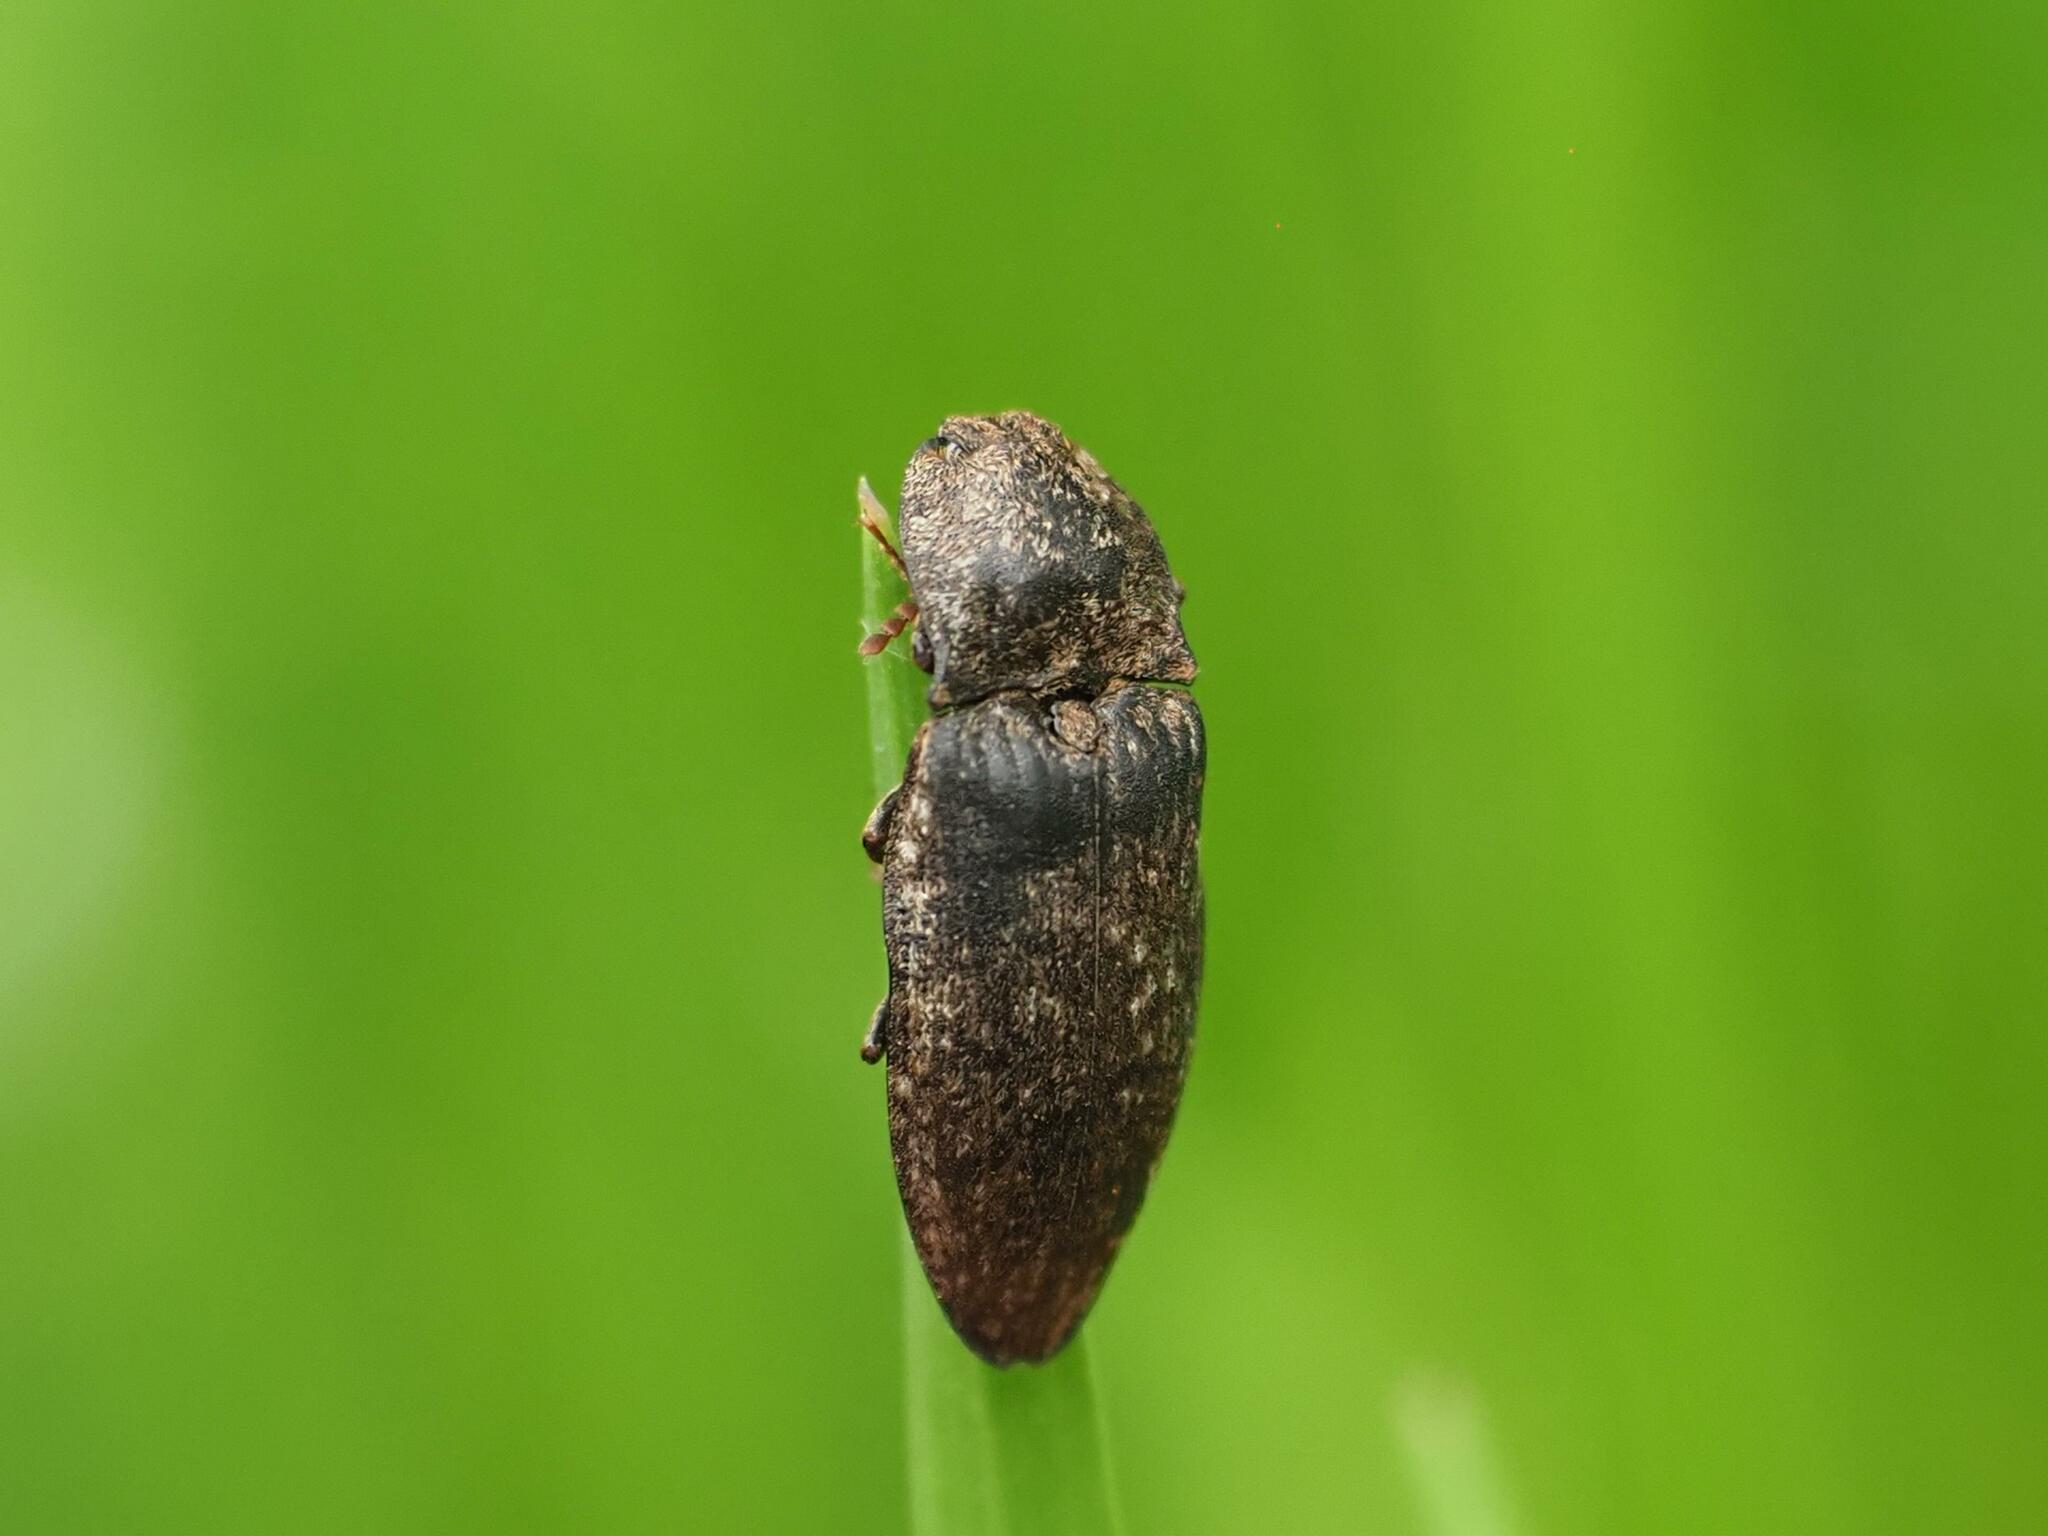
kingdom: Animalia
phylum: Arthropoda
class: Insecta
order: Coleoptera
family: Elateridae
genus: Agrypnus
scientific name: Agrypnus murinus
